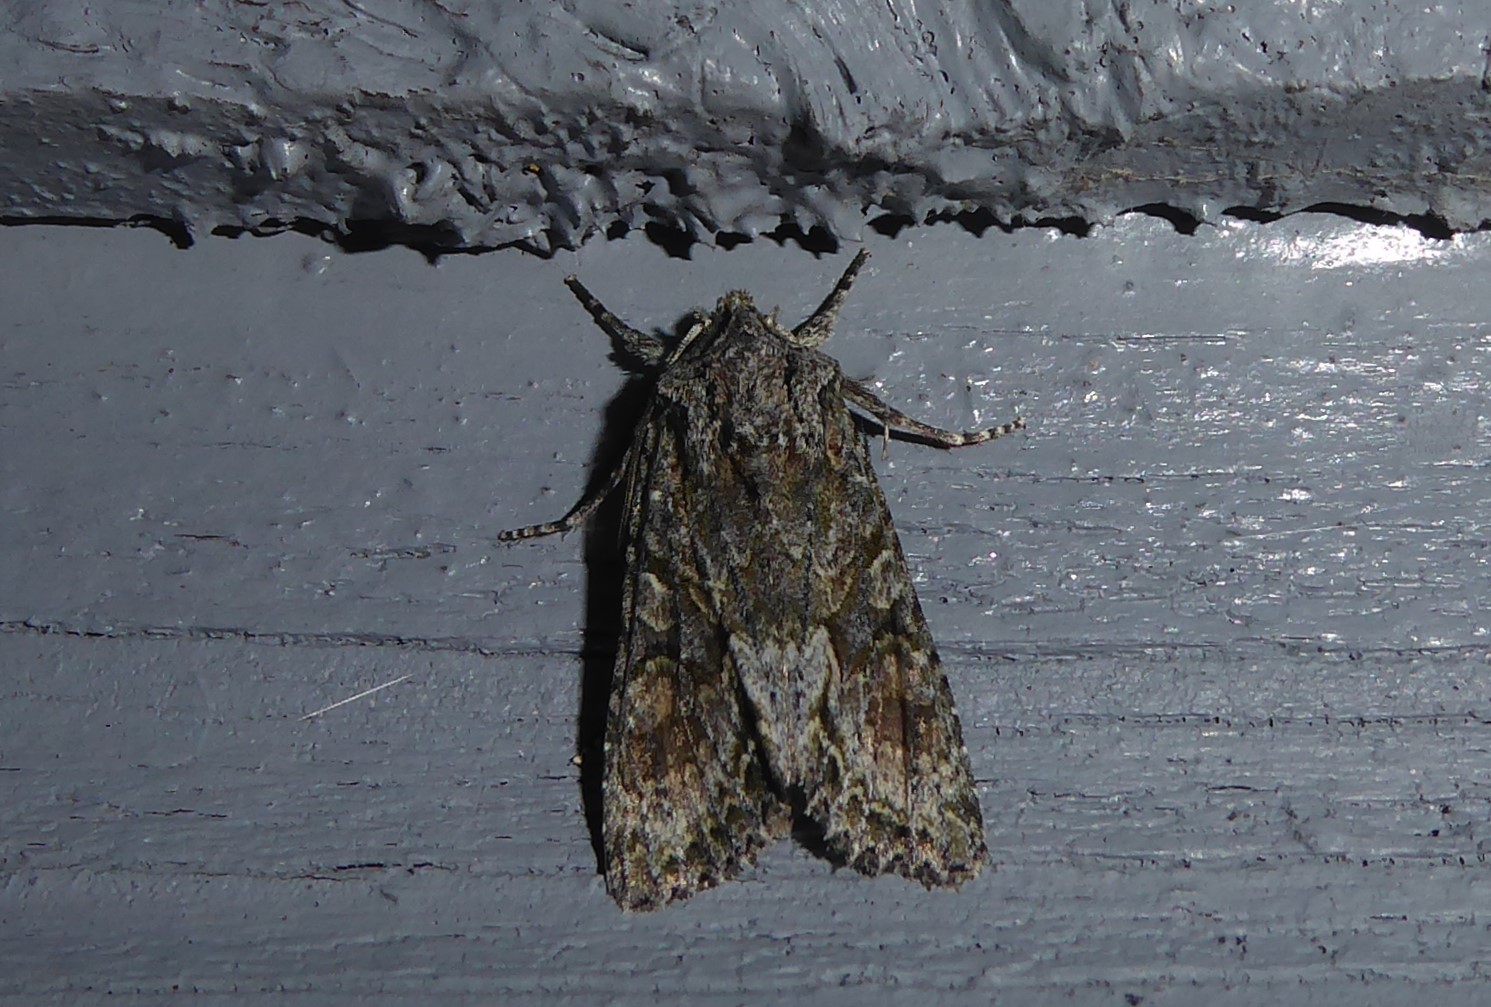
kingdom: Animalia
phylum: Arthropoda
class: Insecta
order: Lepidoptera
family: Noctuidae
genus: Ichneutica
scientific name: Ichneutica mutans
